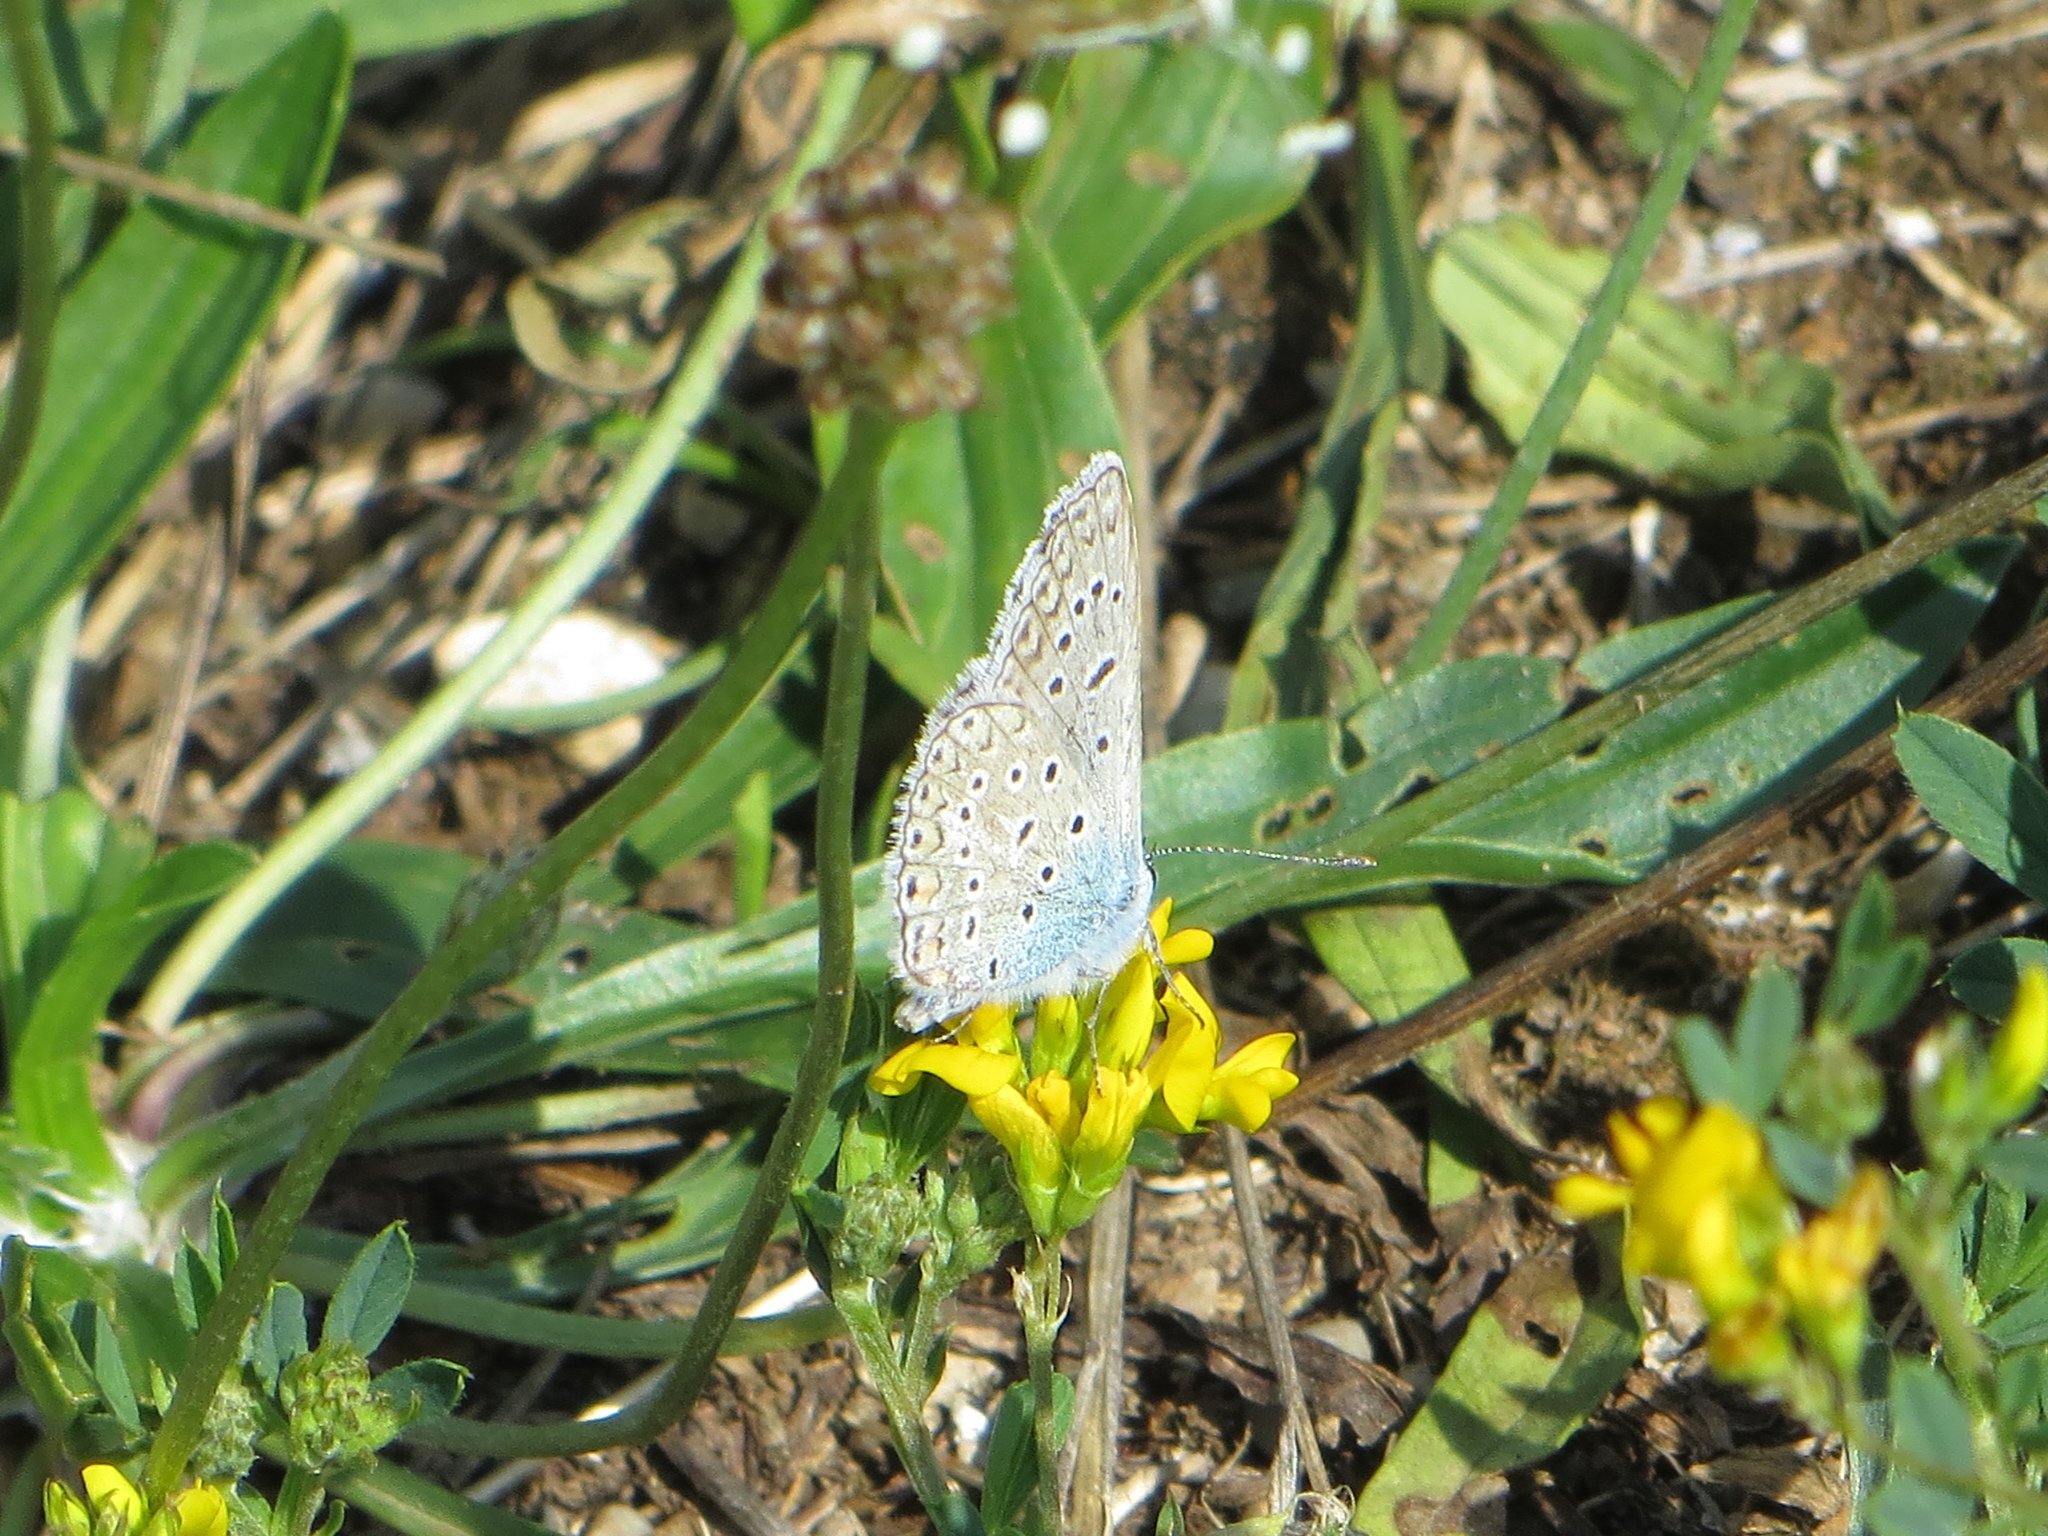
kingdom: Animalia
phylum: Arthropoda
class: Insecta
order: Lepidoptera
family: Lycaenidae
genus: Polyommatus
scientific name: Polyommatus icarus
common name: Common blue
